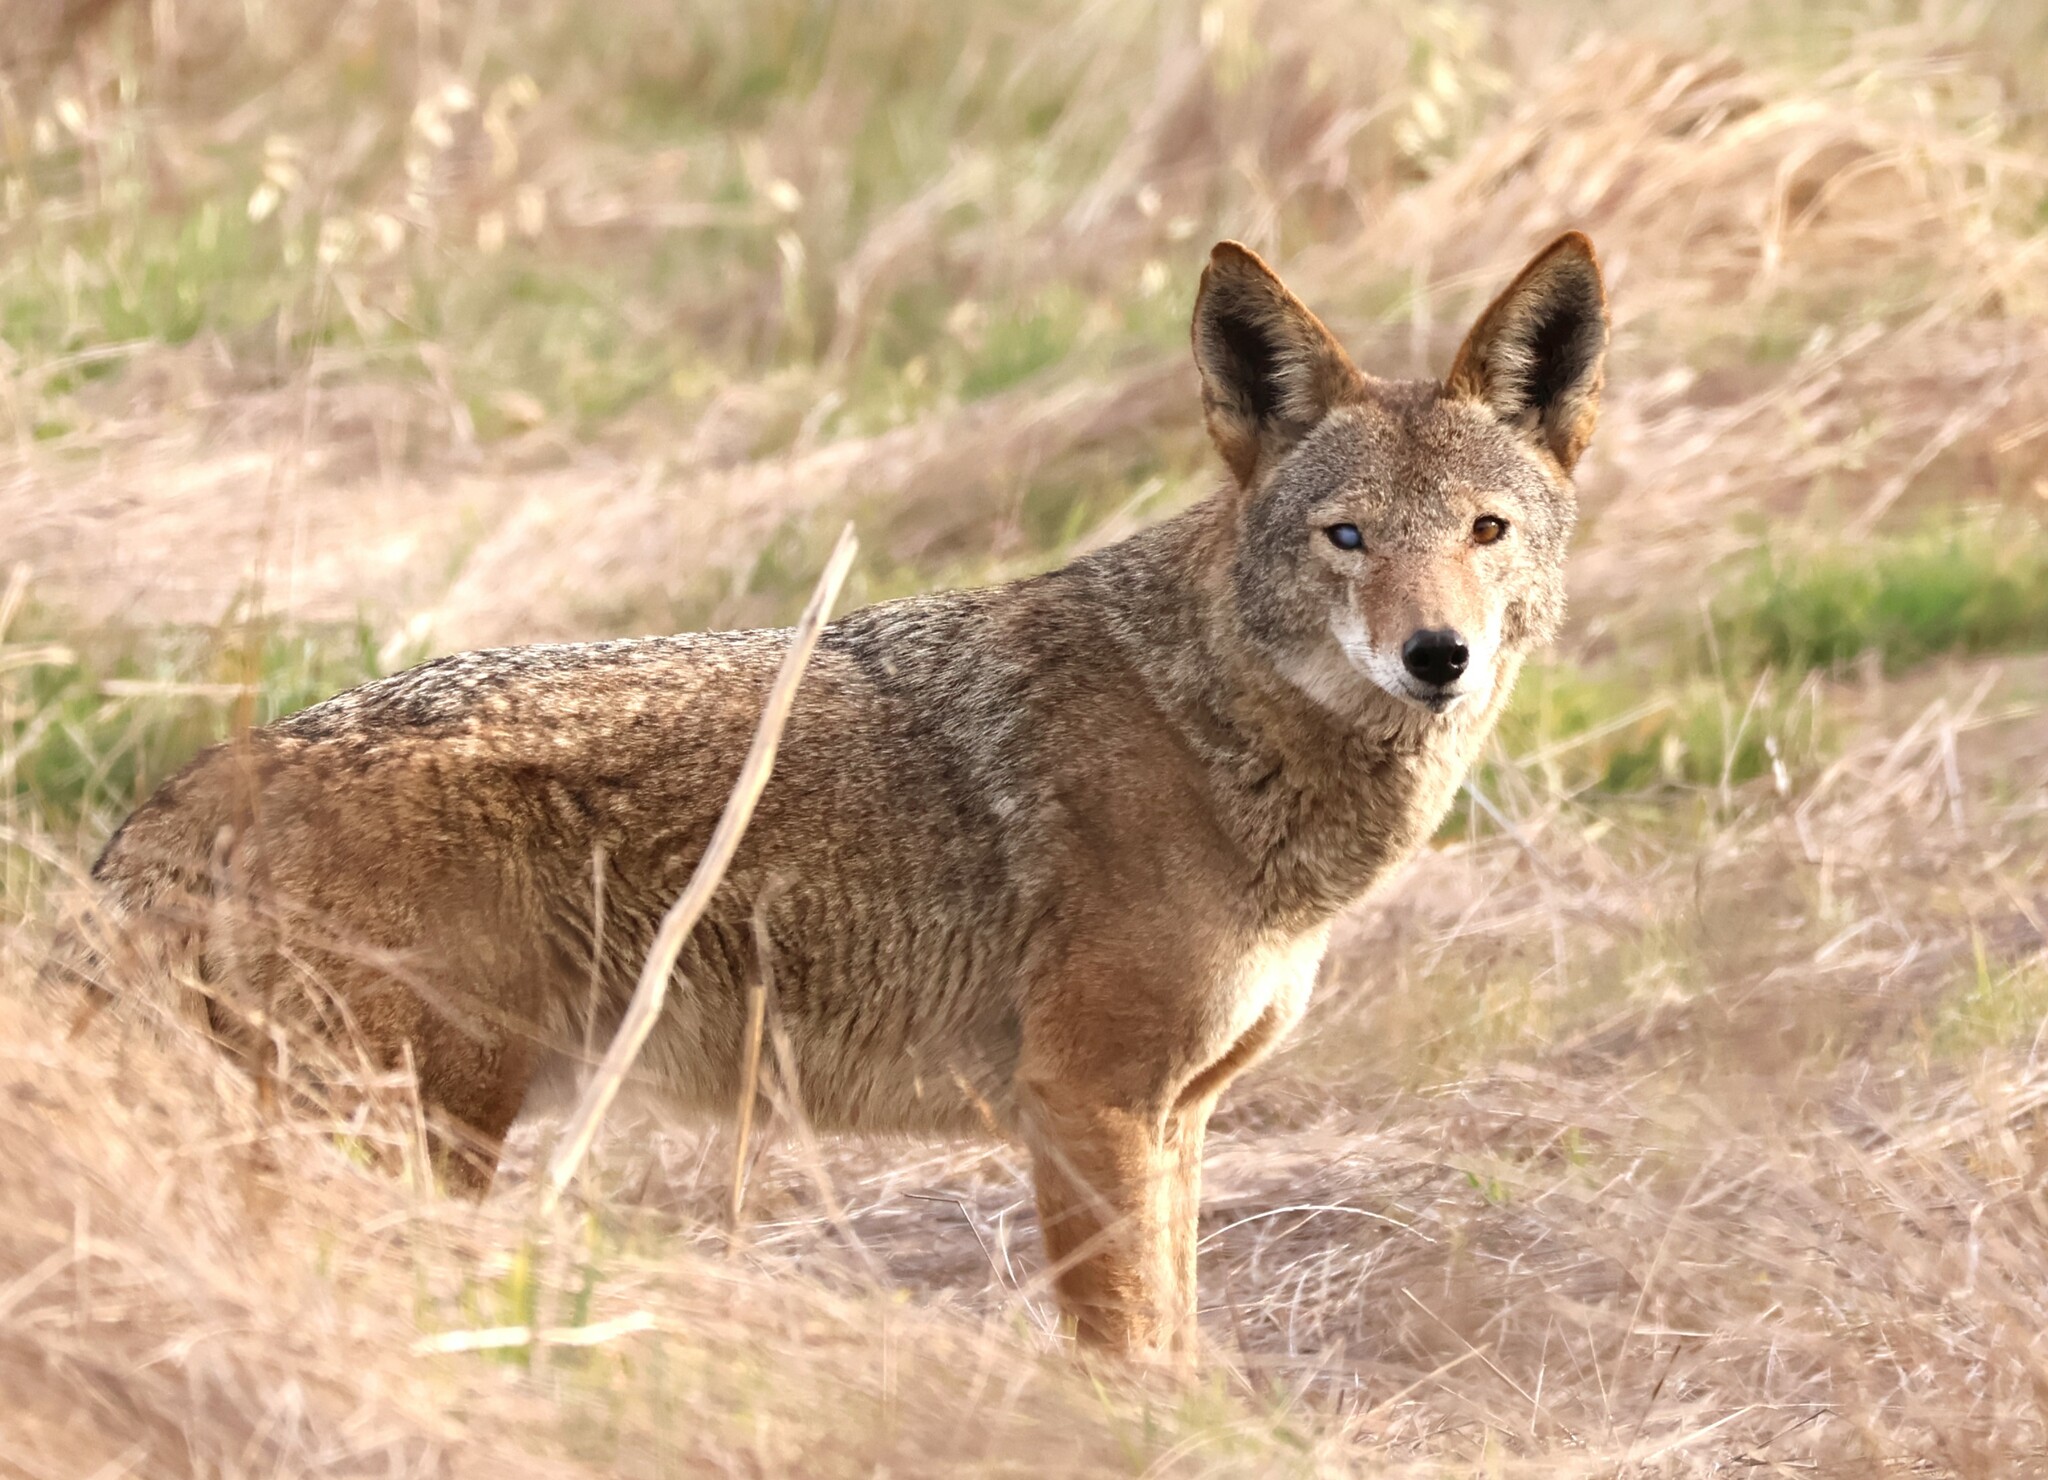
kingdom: Animalia
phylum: Chordata
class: Mammalia
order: Carnivora
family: Canidae
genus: Canis
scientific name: Canis latrans
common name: Coyote
